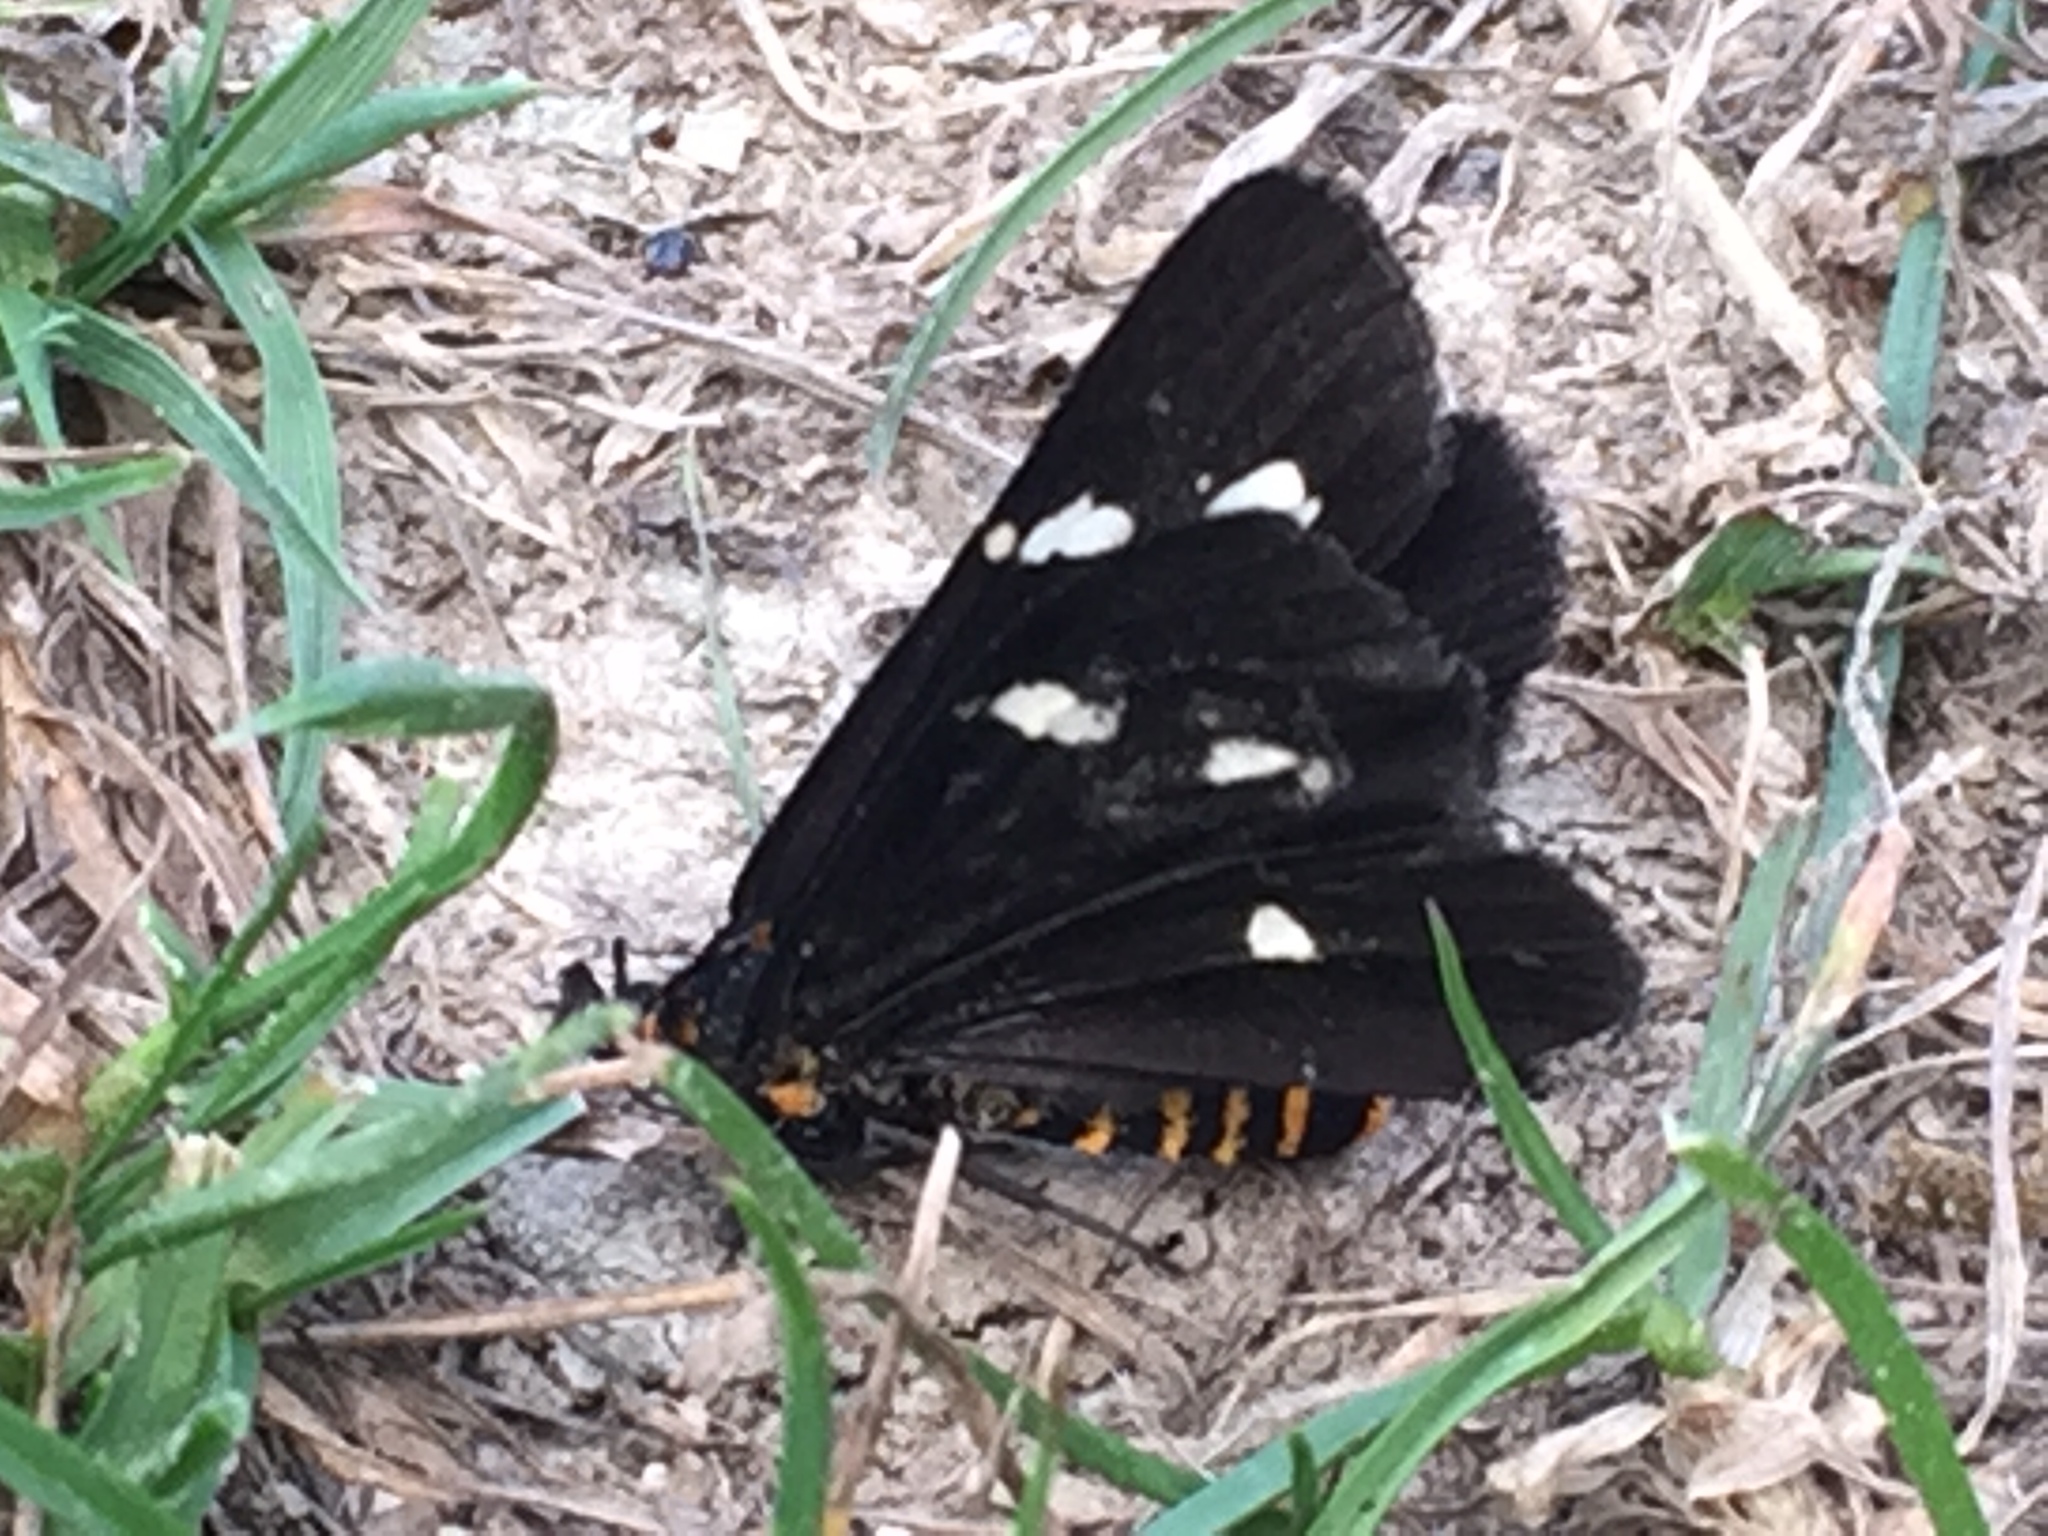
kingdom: Animalia
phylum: Arthropoda
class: Insecta
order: Lepidoptera
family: Erebidae
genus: Nyctemera
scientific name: Nyctemera annulatum
